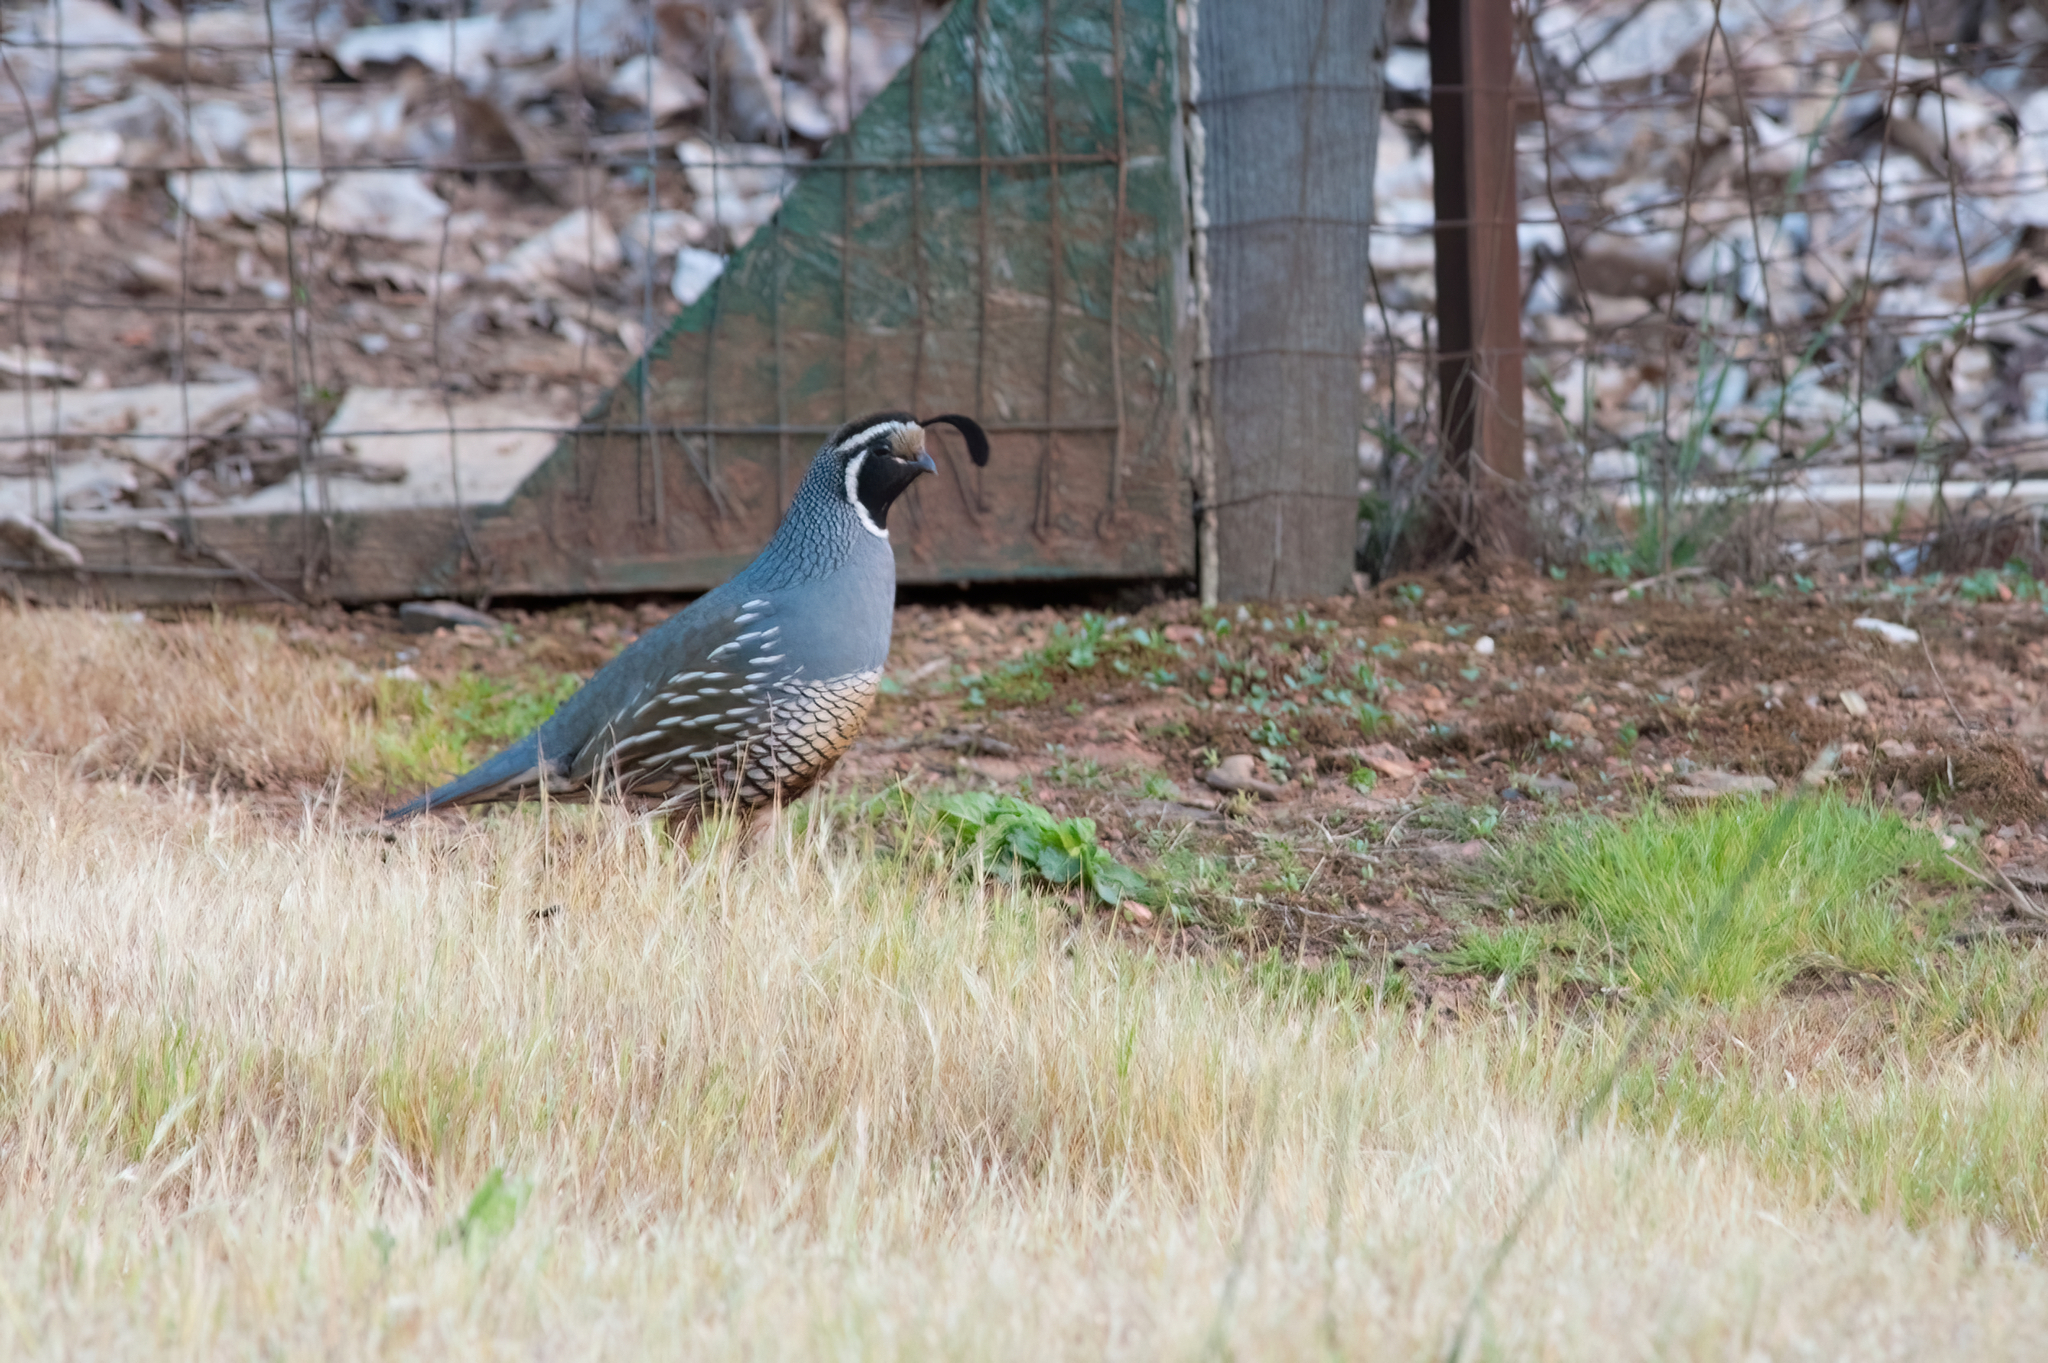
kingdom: Animalia
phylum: Chordata
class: Aves
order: Galliformes
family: Odontophoridae
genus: Callipepla
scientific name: Callipepla californica
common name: California quail
